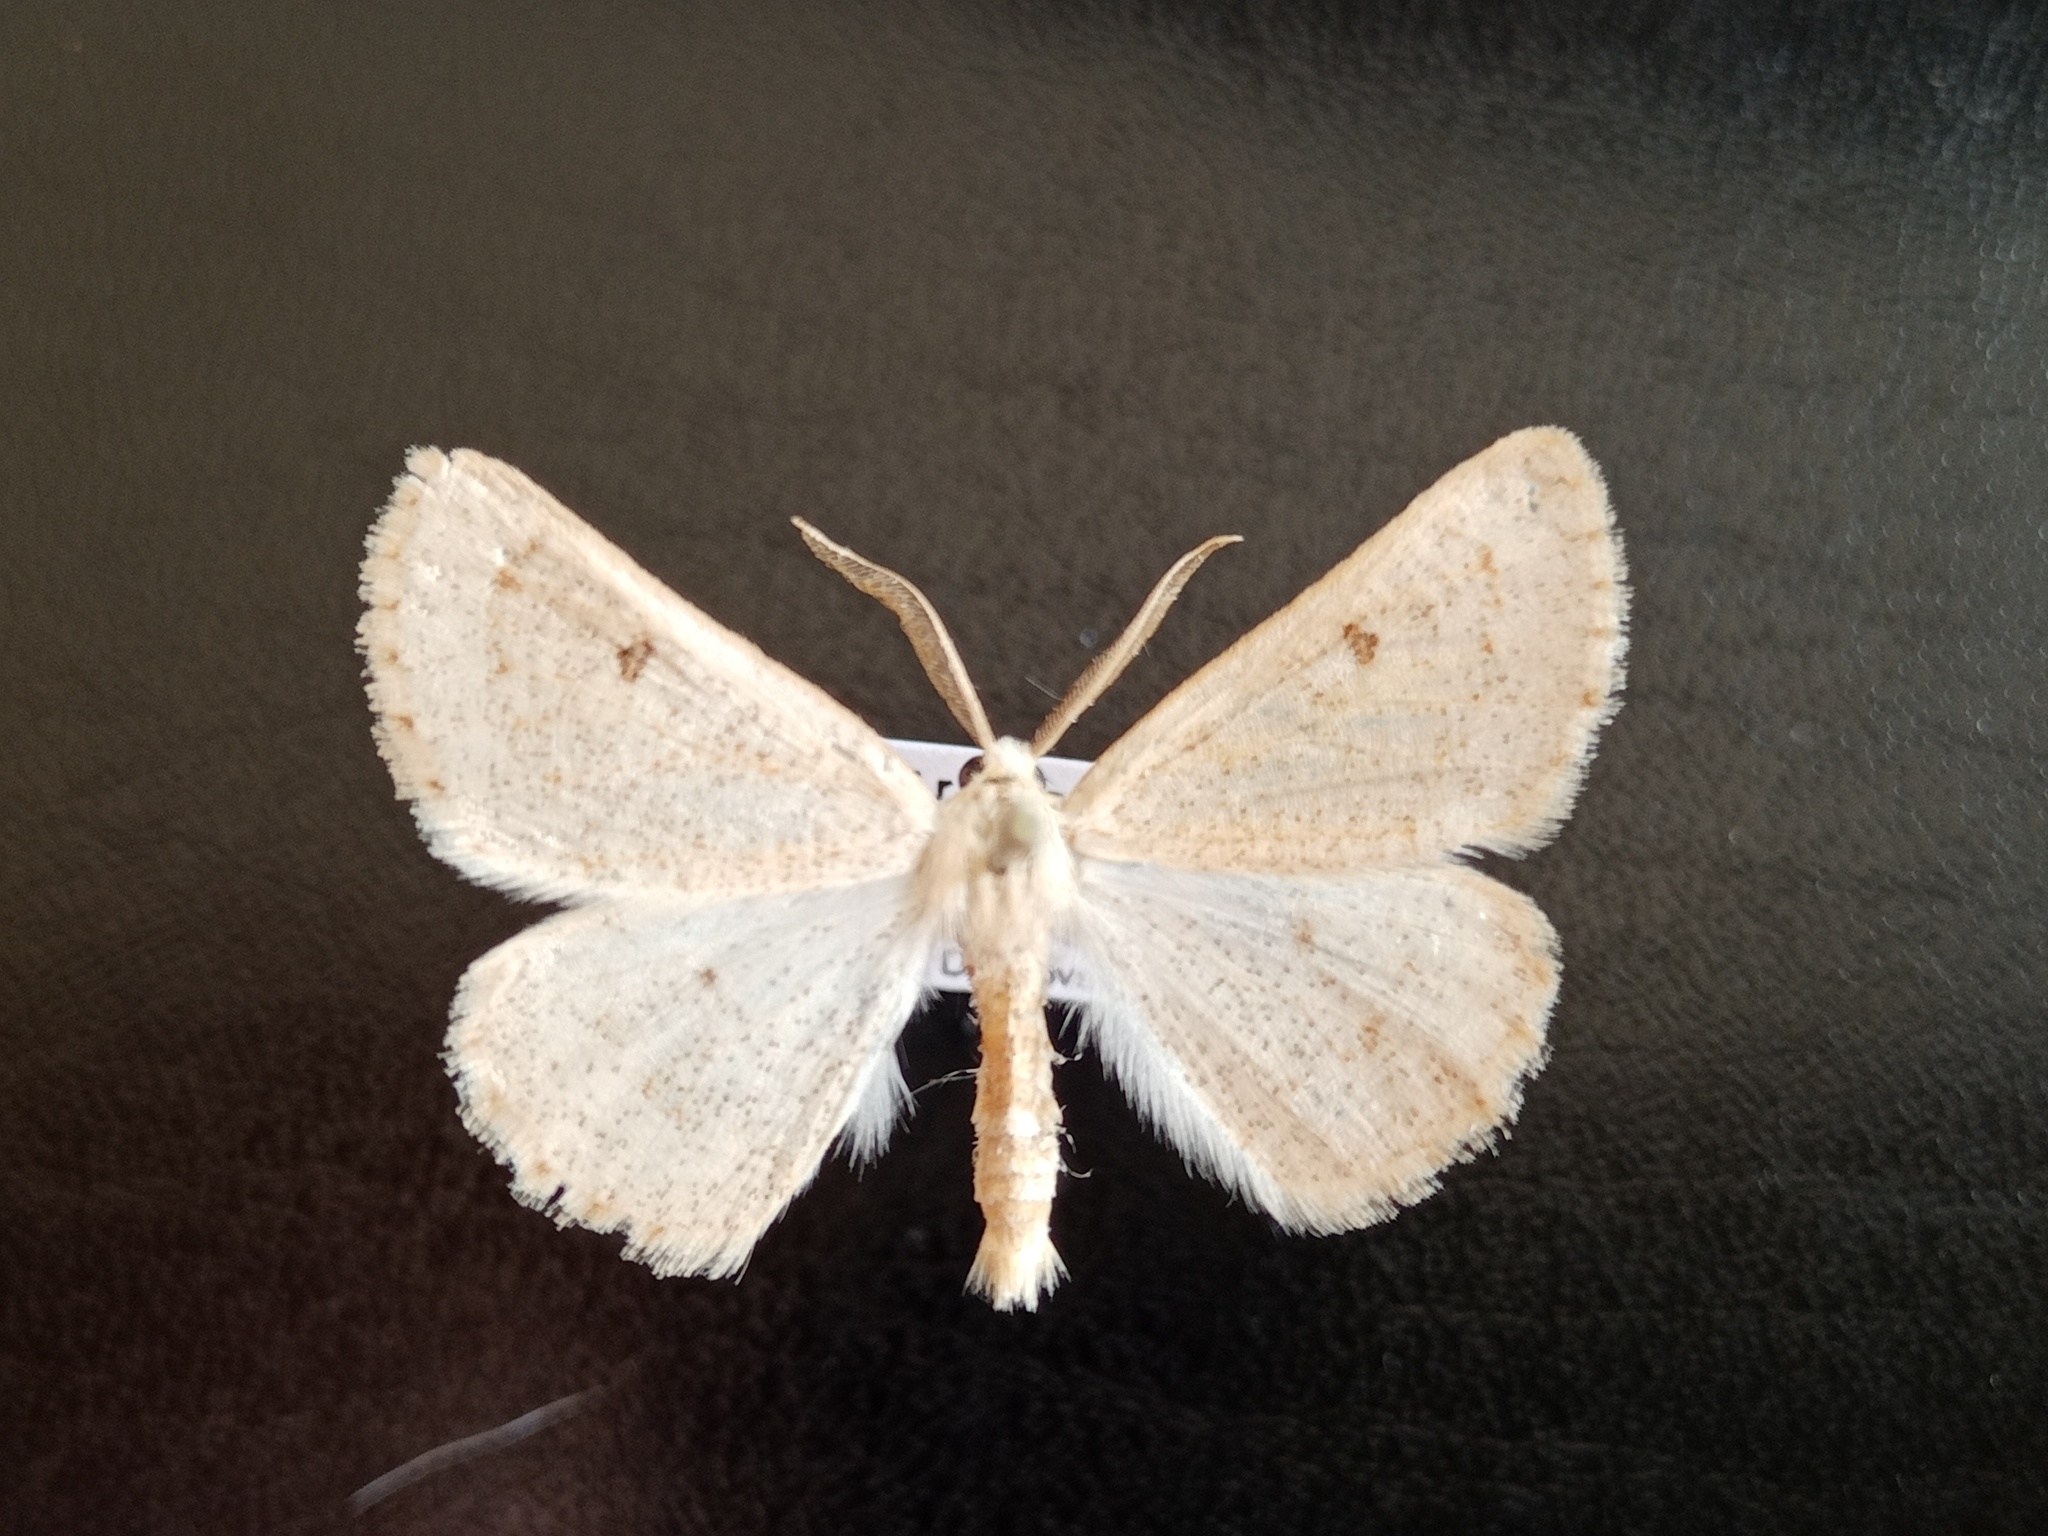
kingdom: Animalia
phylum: Arthropoda
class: Insecta
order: Lepidoptera
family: Geometridae
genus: Dyscia
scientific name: Dyscia penulataria
